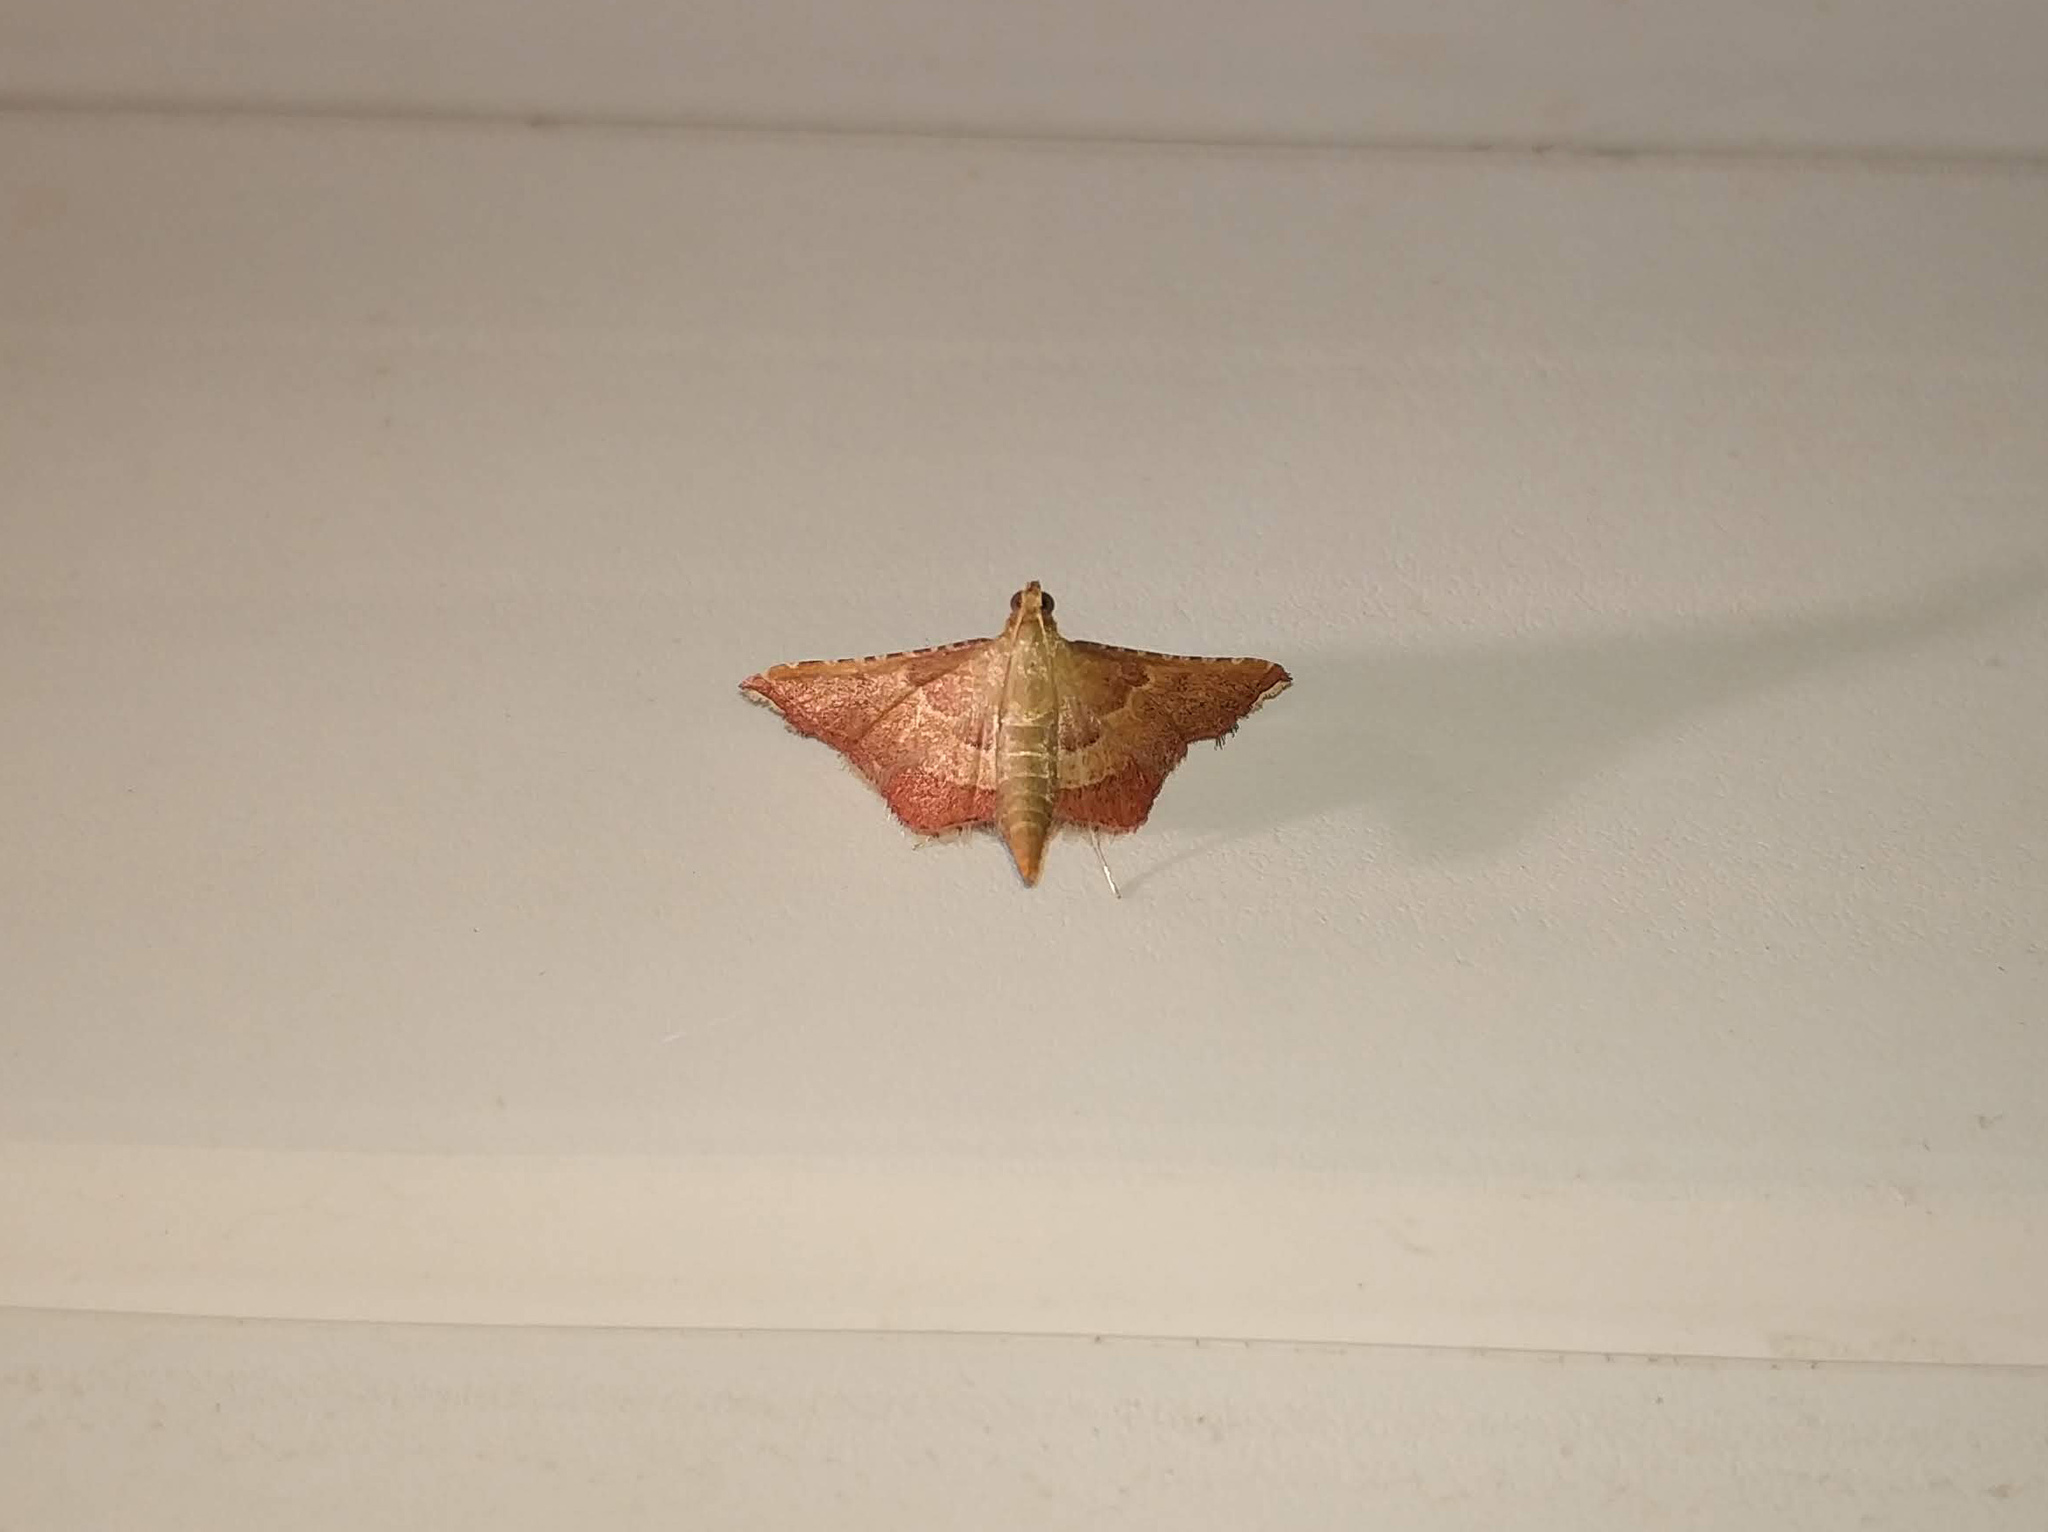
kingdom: Animalia
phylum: Arthropoda
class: Insecta
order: Lepidoptera
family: Pyralidae
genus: Endotricha
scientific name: Endotricha flammealis
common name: Rosy tabby
